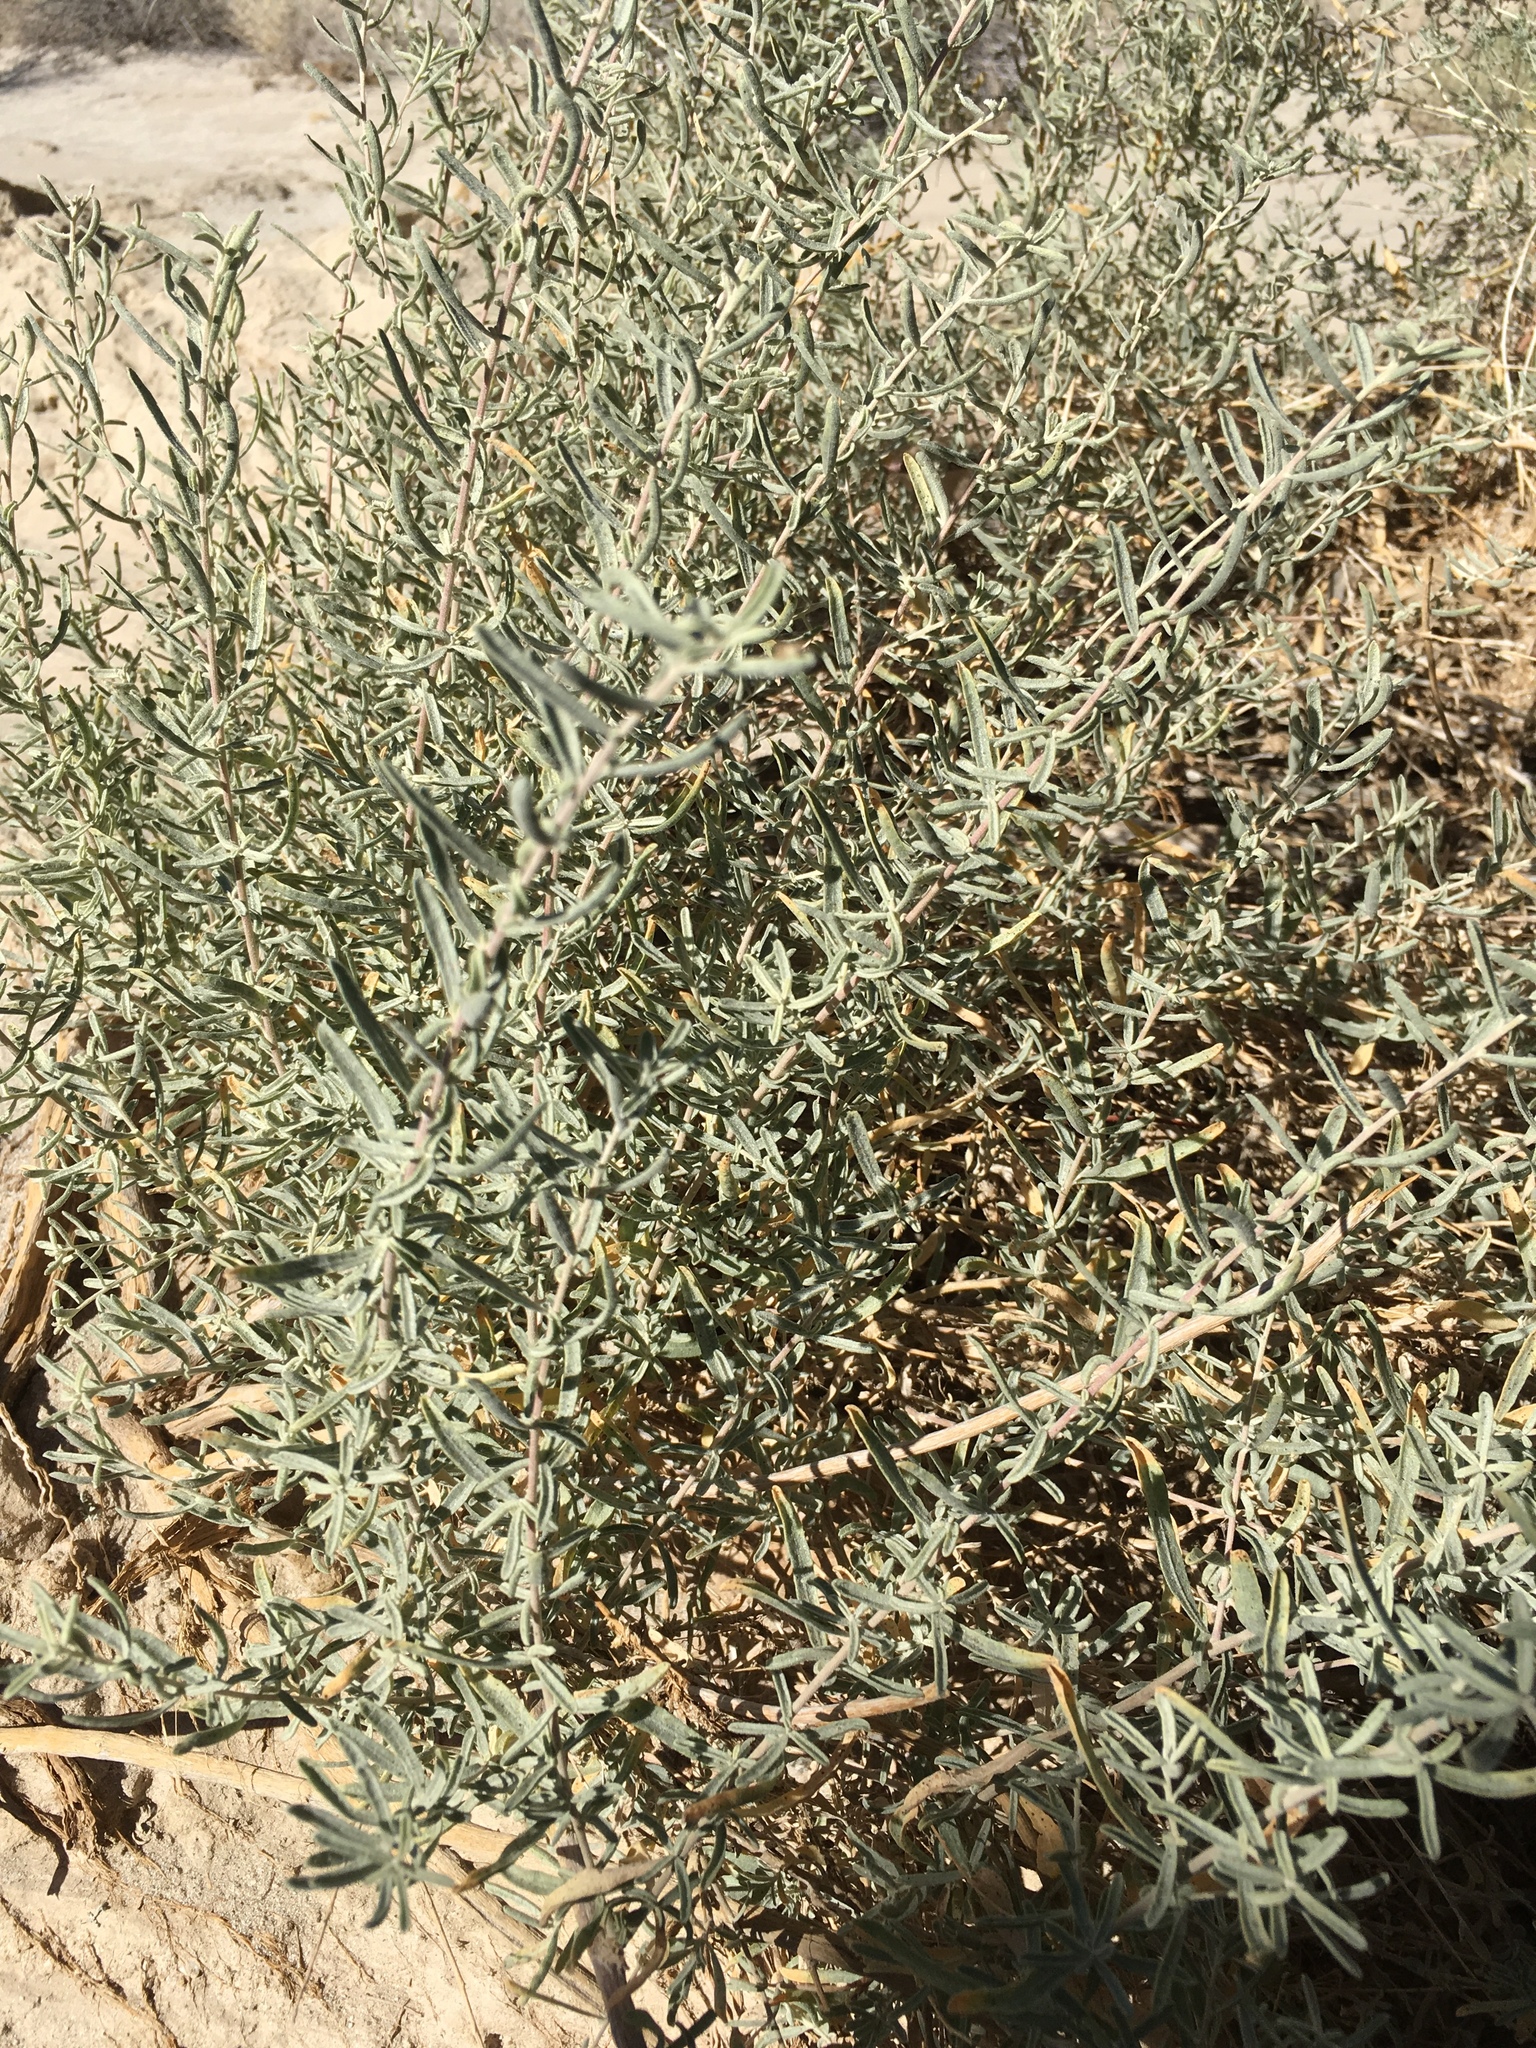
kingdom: Plantae
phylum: Tracheophyta
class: Magnoliopsida
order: Caryophyllales
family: Amaranthaceae
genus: Atriplex
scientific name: Atriplex canescens
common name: Four-wing saltbush
